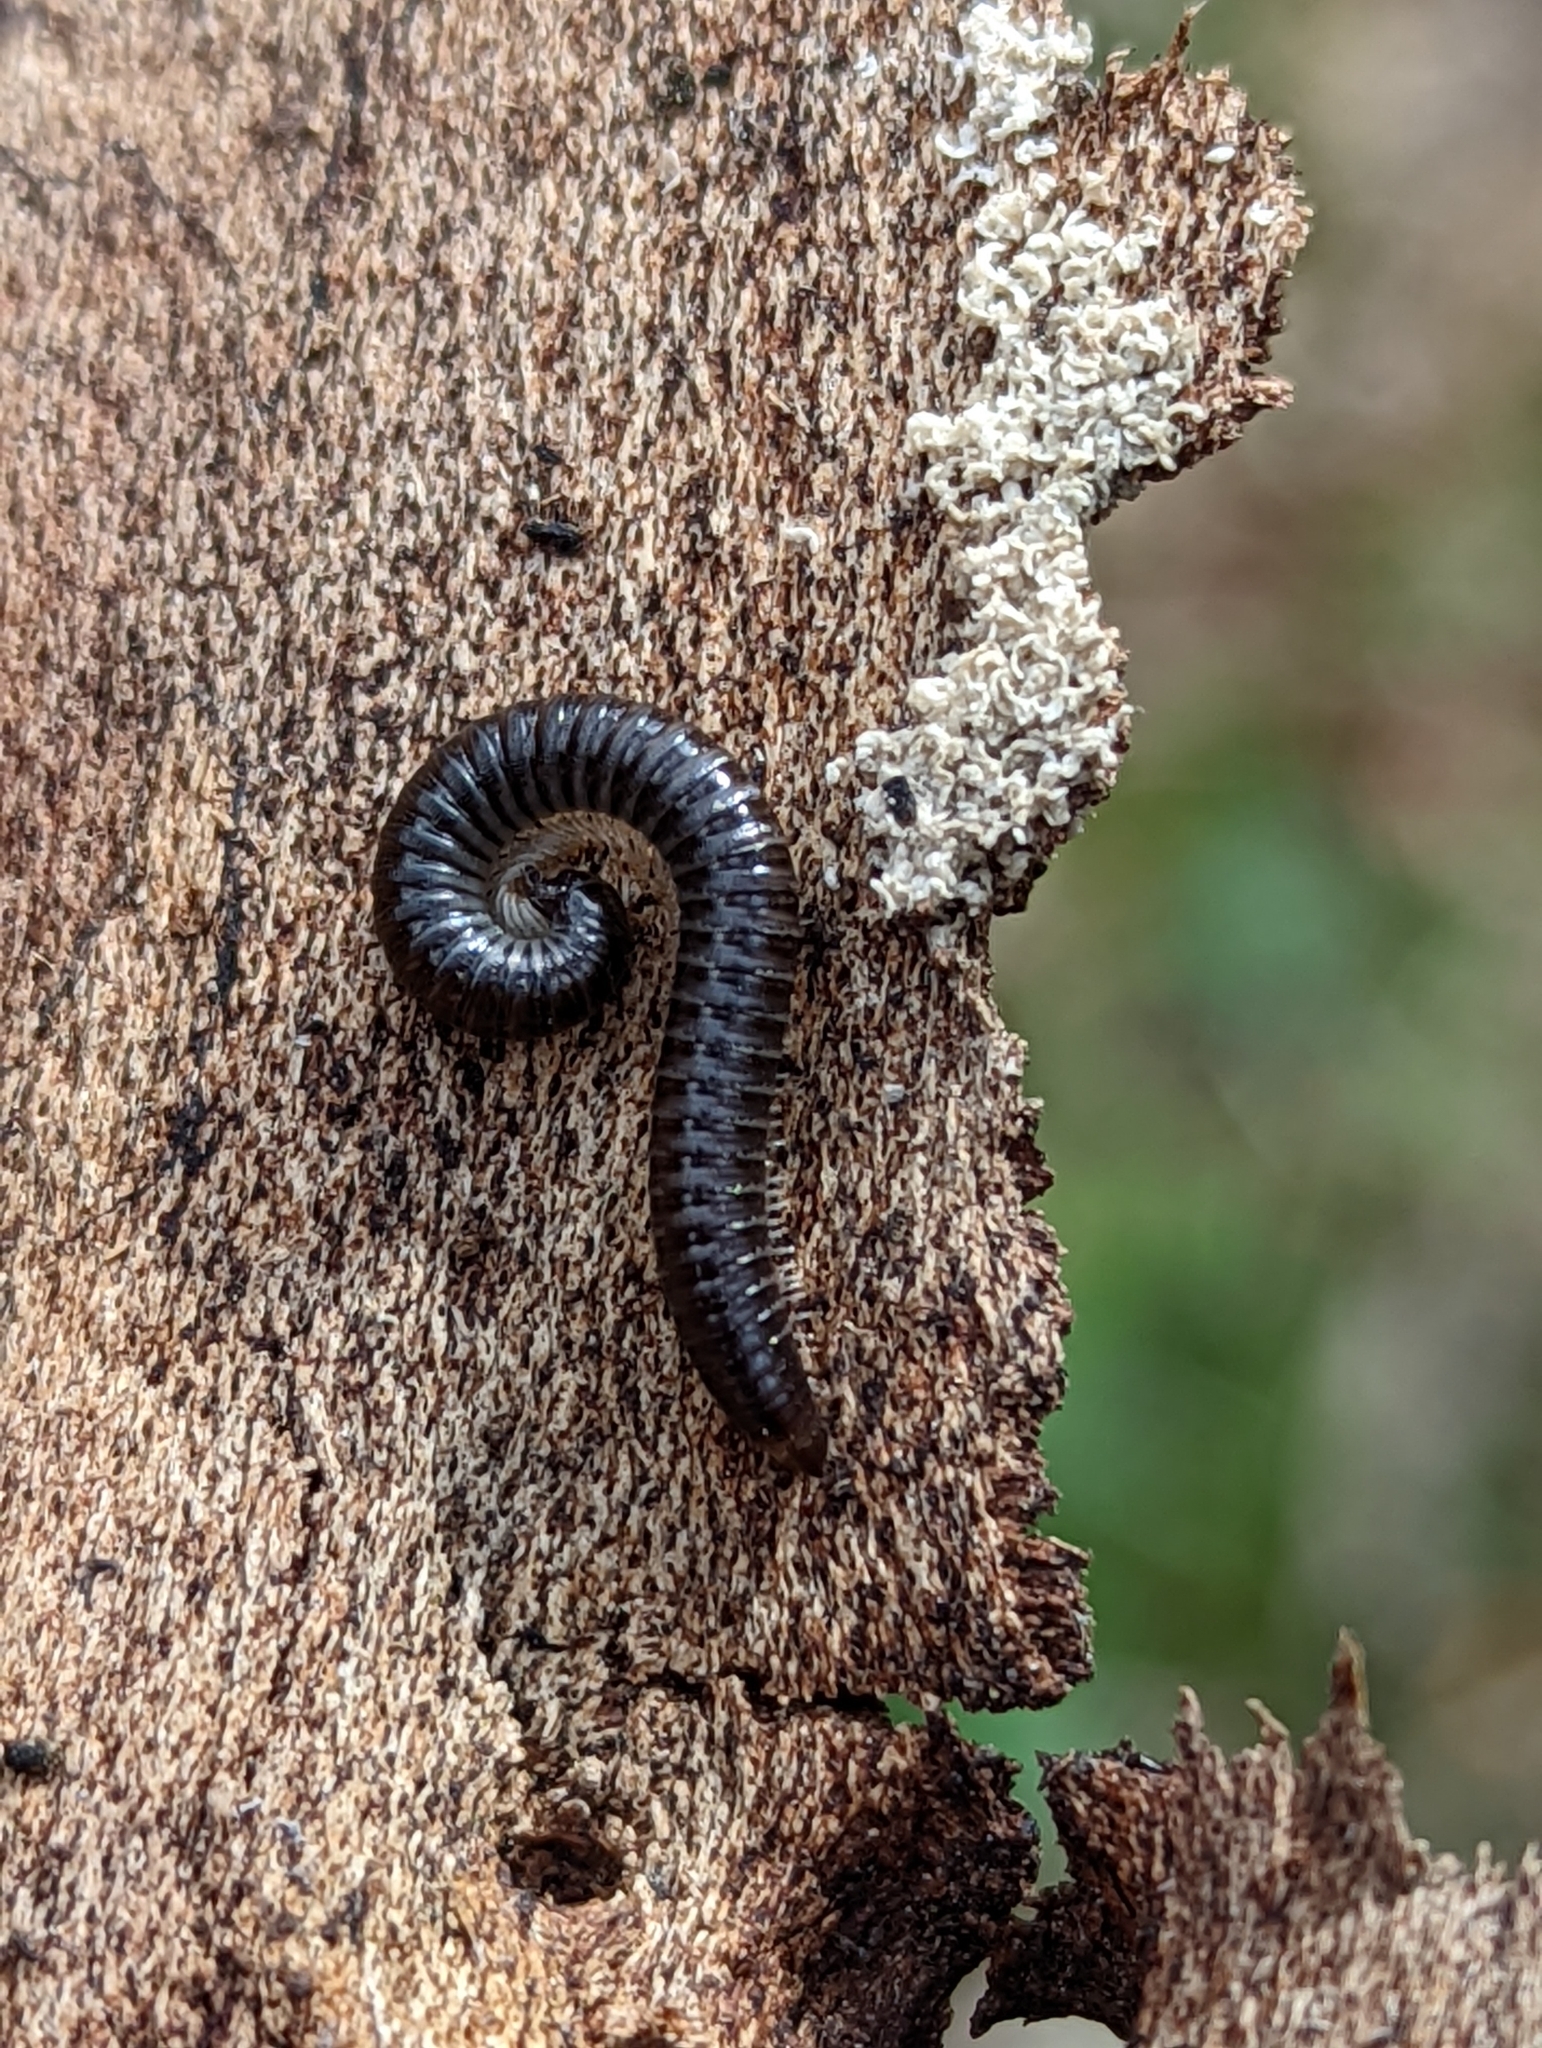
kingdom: Animalia
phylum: Arthropoda
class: Diplopoda
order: Julida
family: Julidae
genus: Tachypodoiulus
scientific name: Tachypodoiulus niger
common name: White-legged snake millipede
